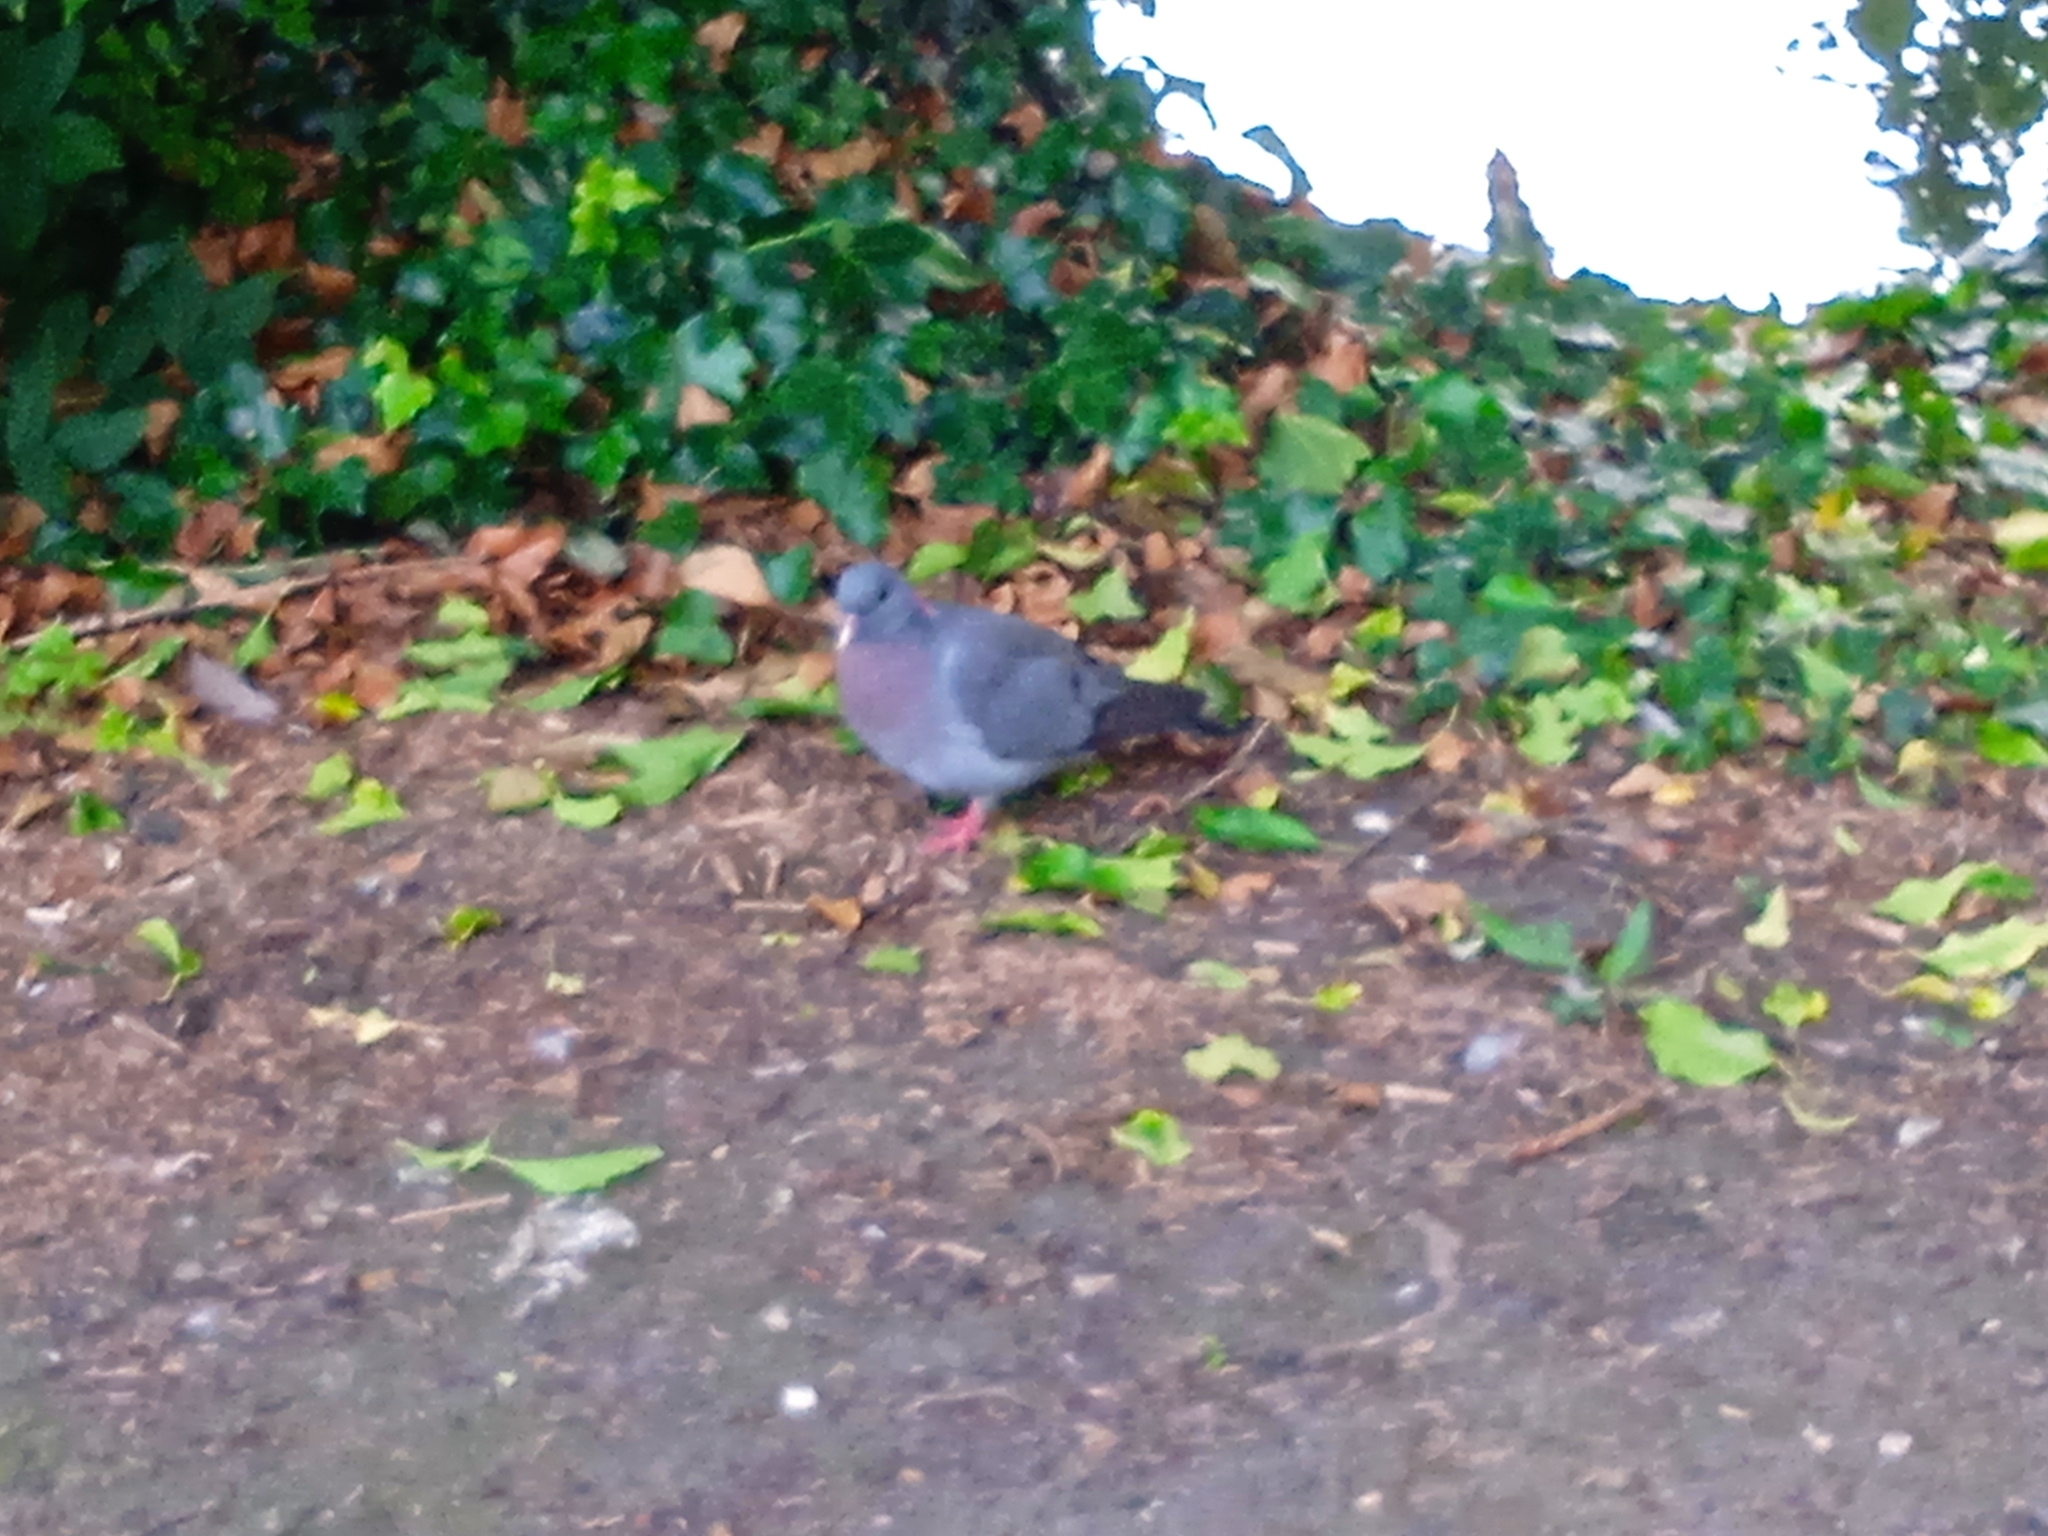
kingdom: Animalia
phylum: Chordata
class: Aves
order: Columbiformes
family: Columbidae
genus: Columba
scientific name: Columba oenas
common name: Stock dove
